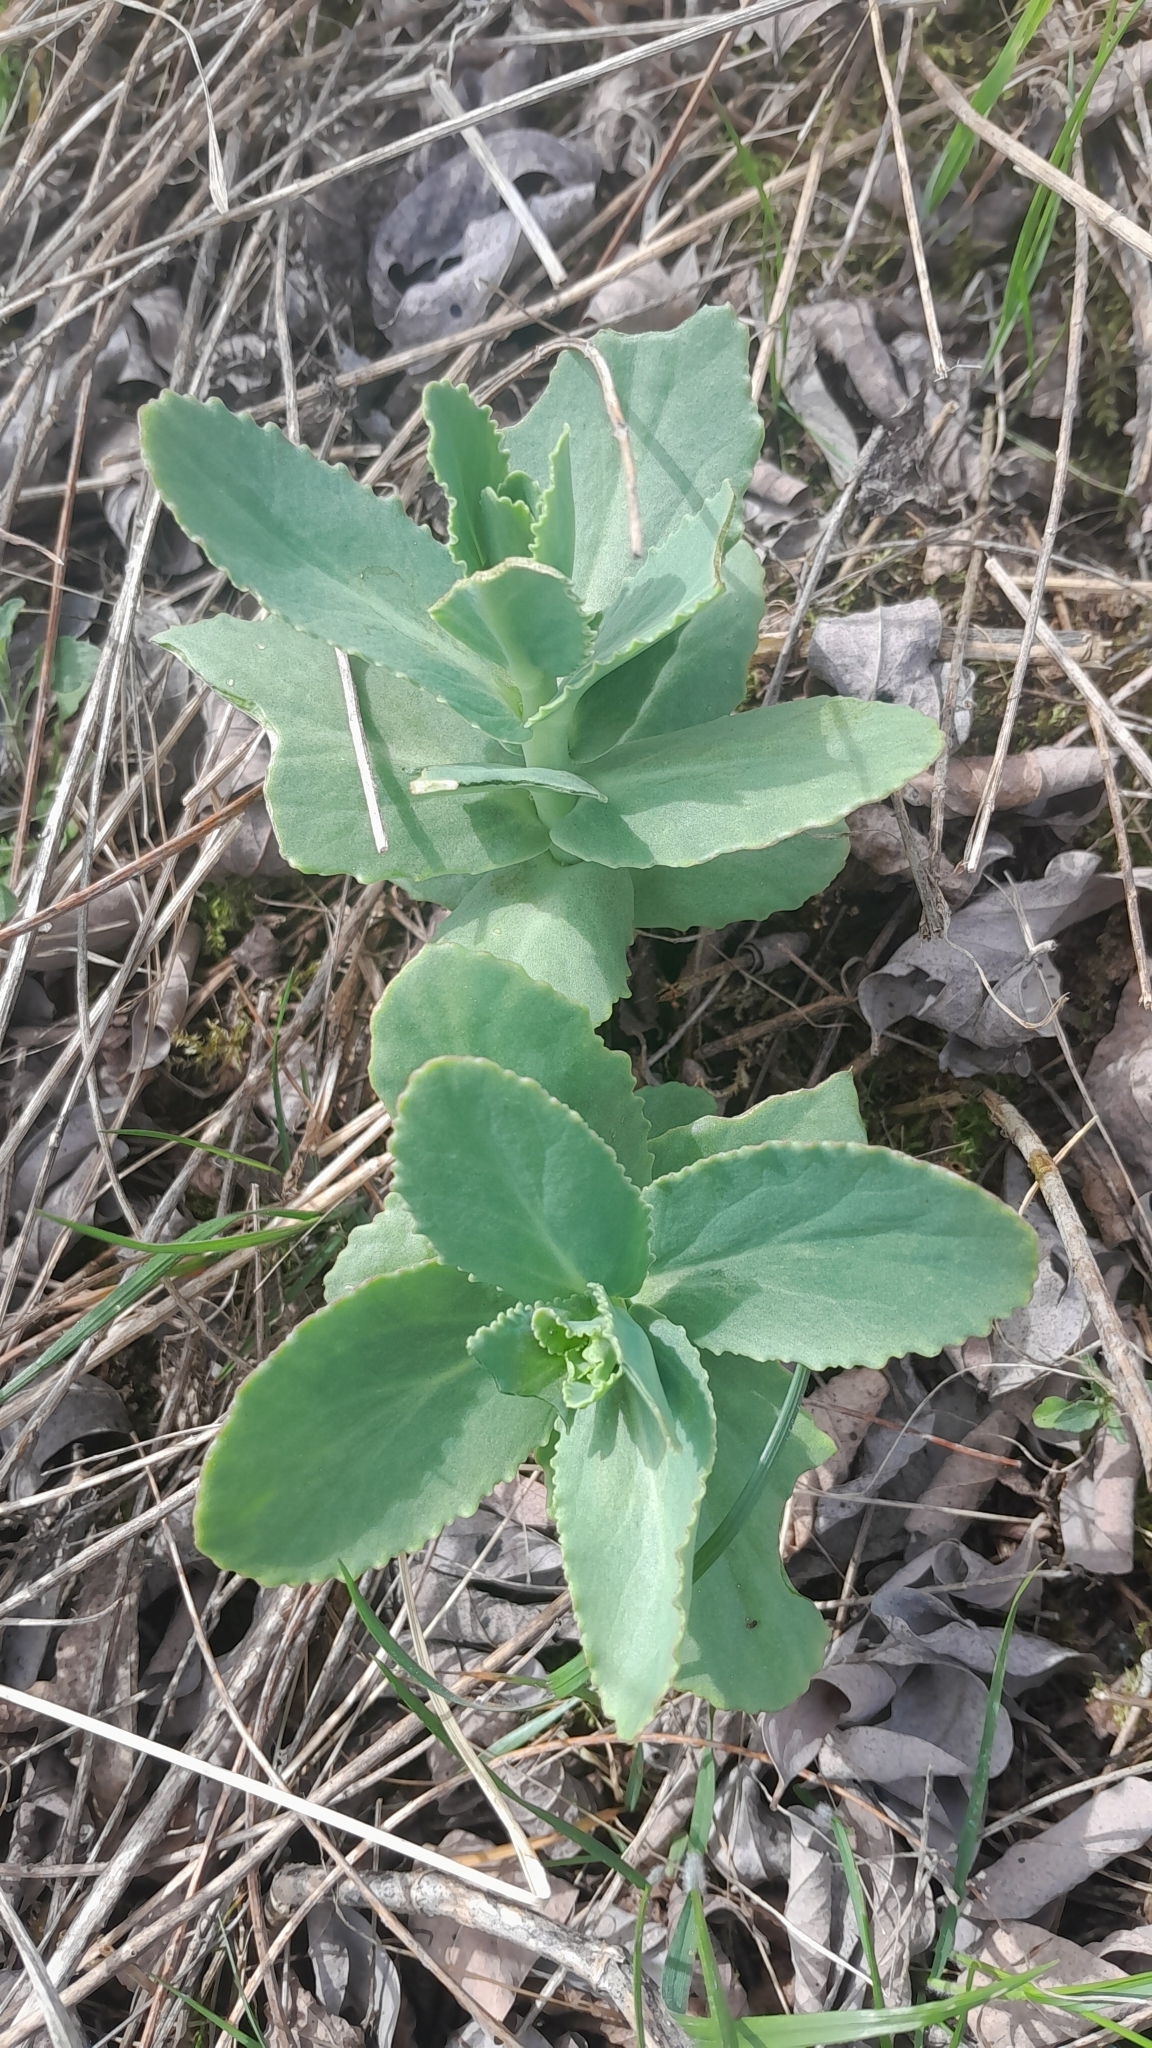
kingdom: Plantae
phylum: Tracheophyta
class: Magnoliopsida
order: Saxifragales
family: Crassulaceae
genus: Hylotelephium
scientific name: Hylotelephium maximum
